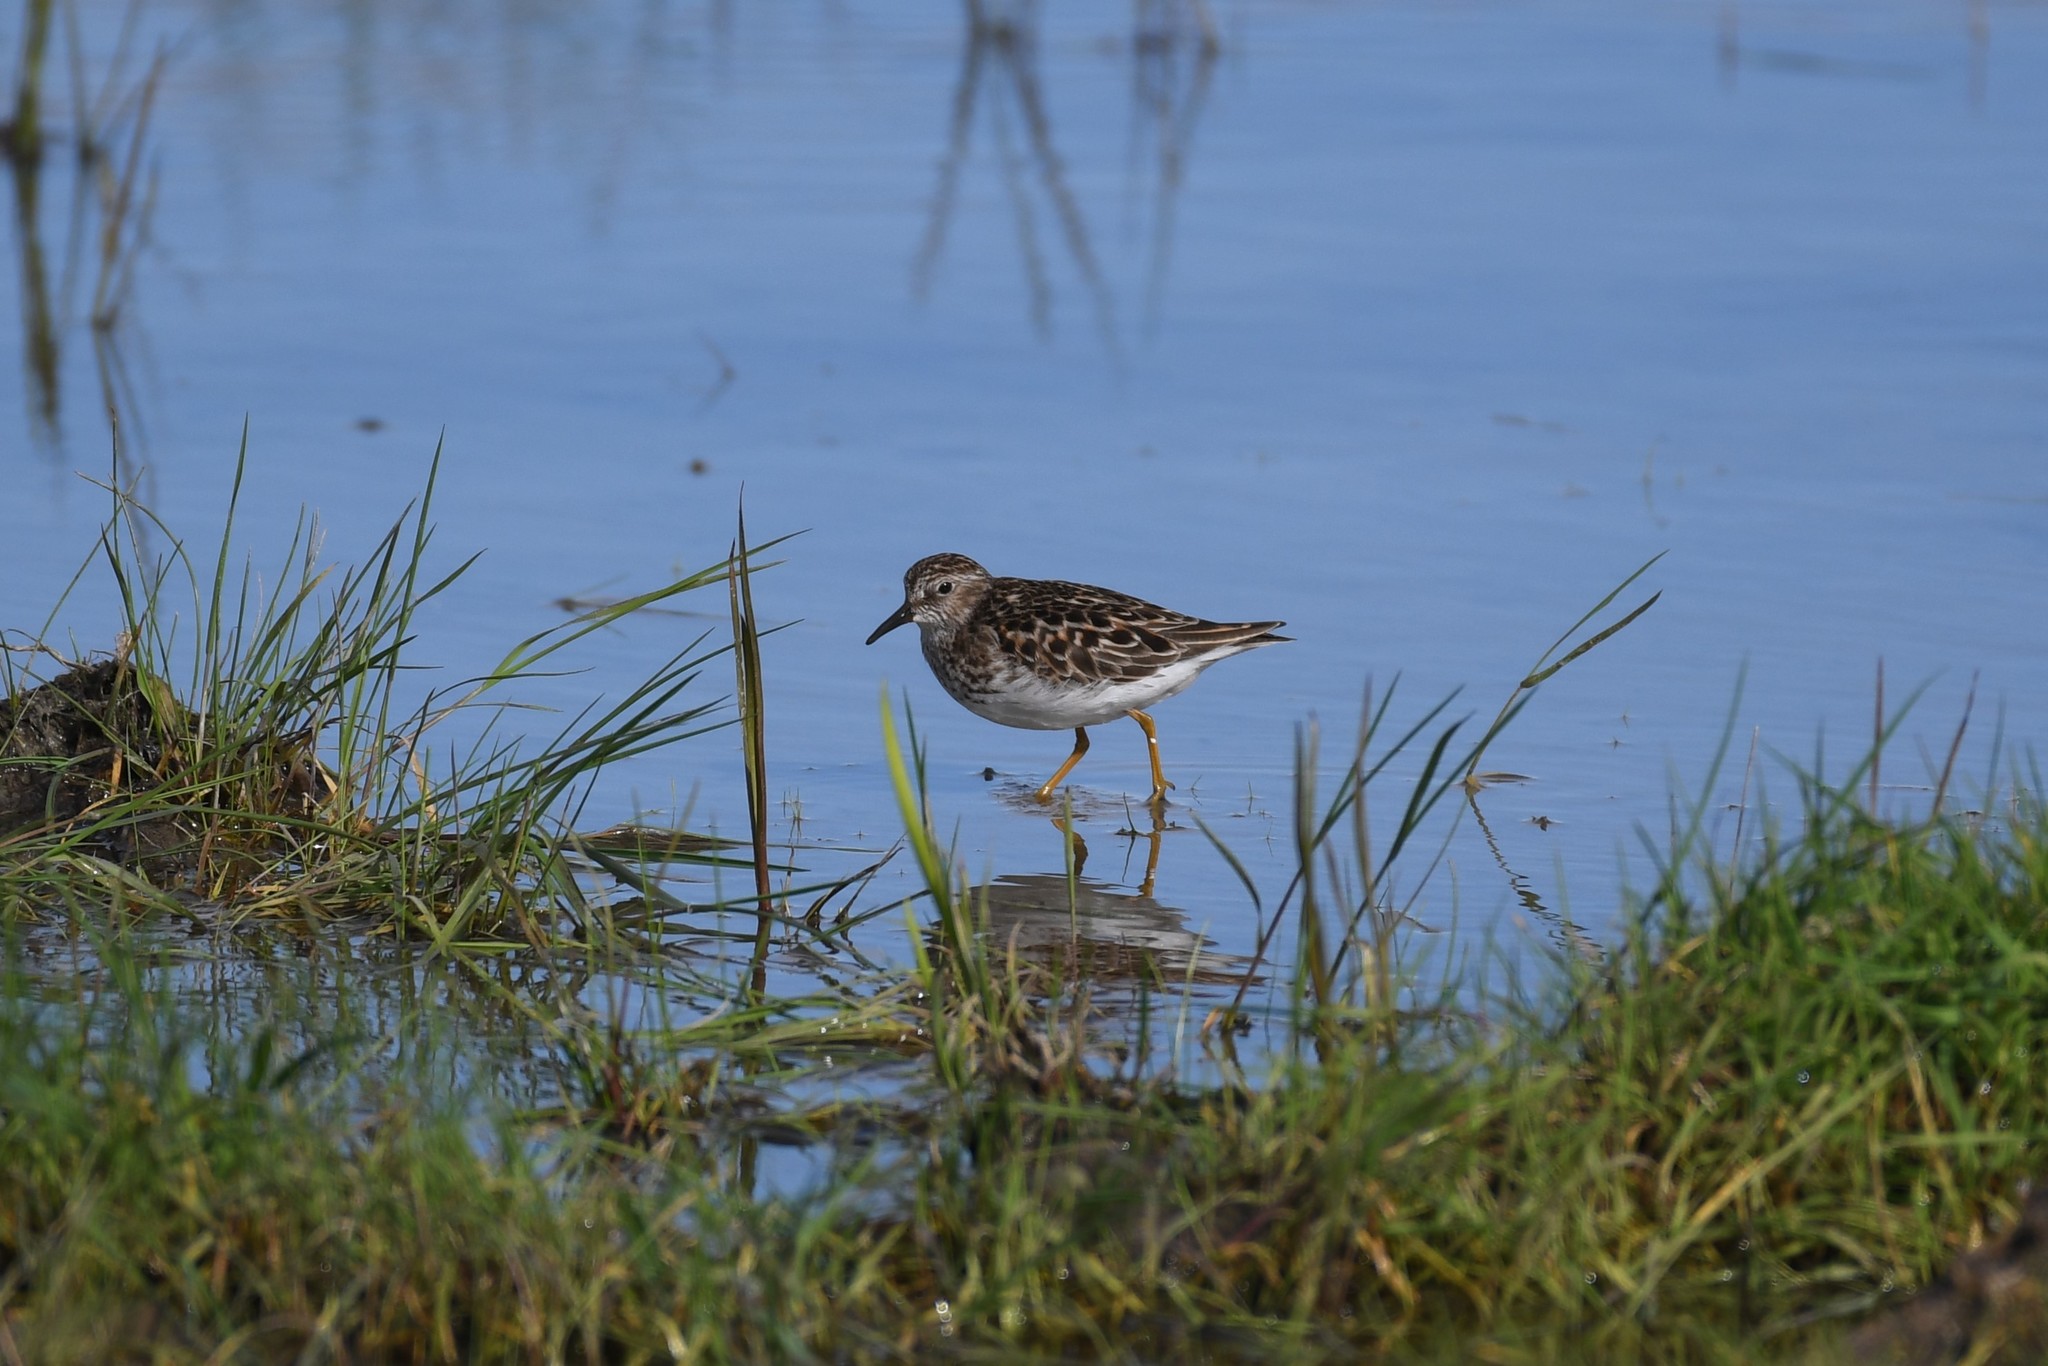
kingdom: Animalia
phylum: Chordata
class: Aves
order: Charadriiformes
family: Scolopacidae
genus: Calidris
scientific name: Calidris minutilla
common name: Least sandpiper
